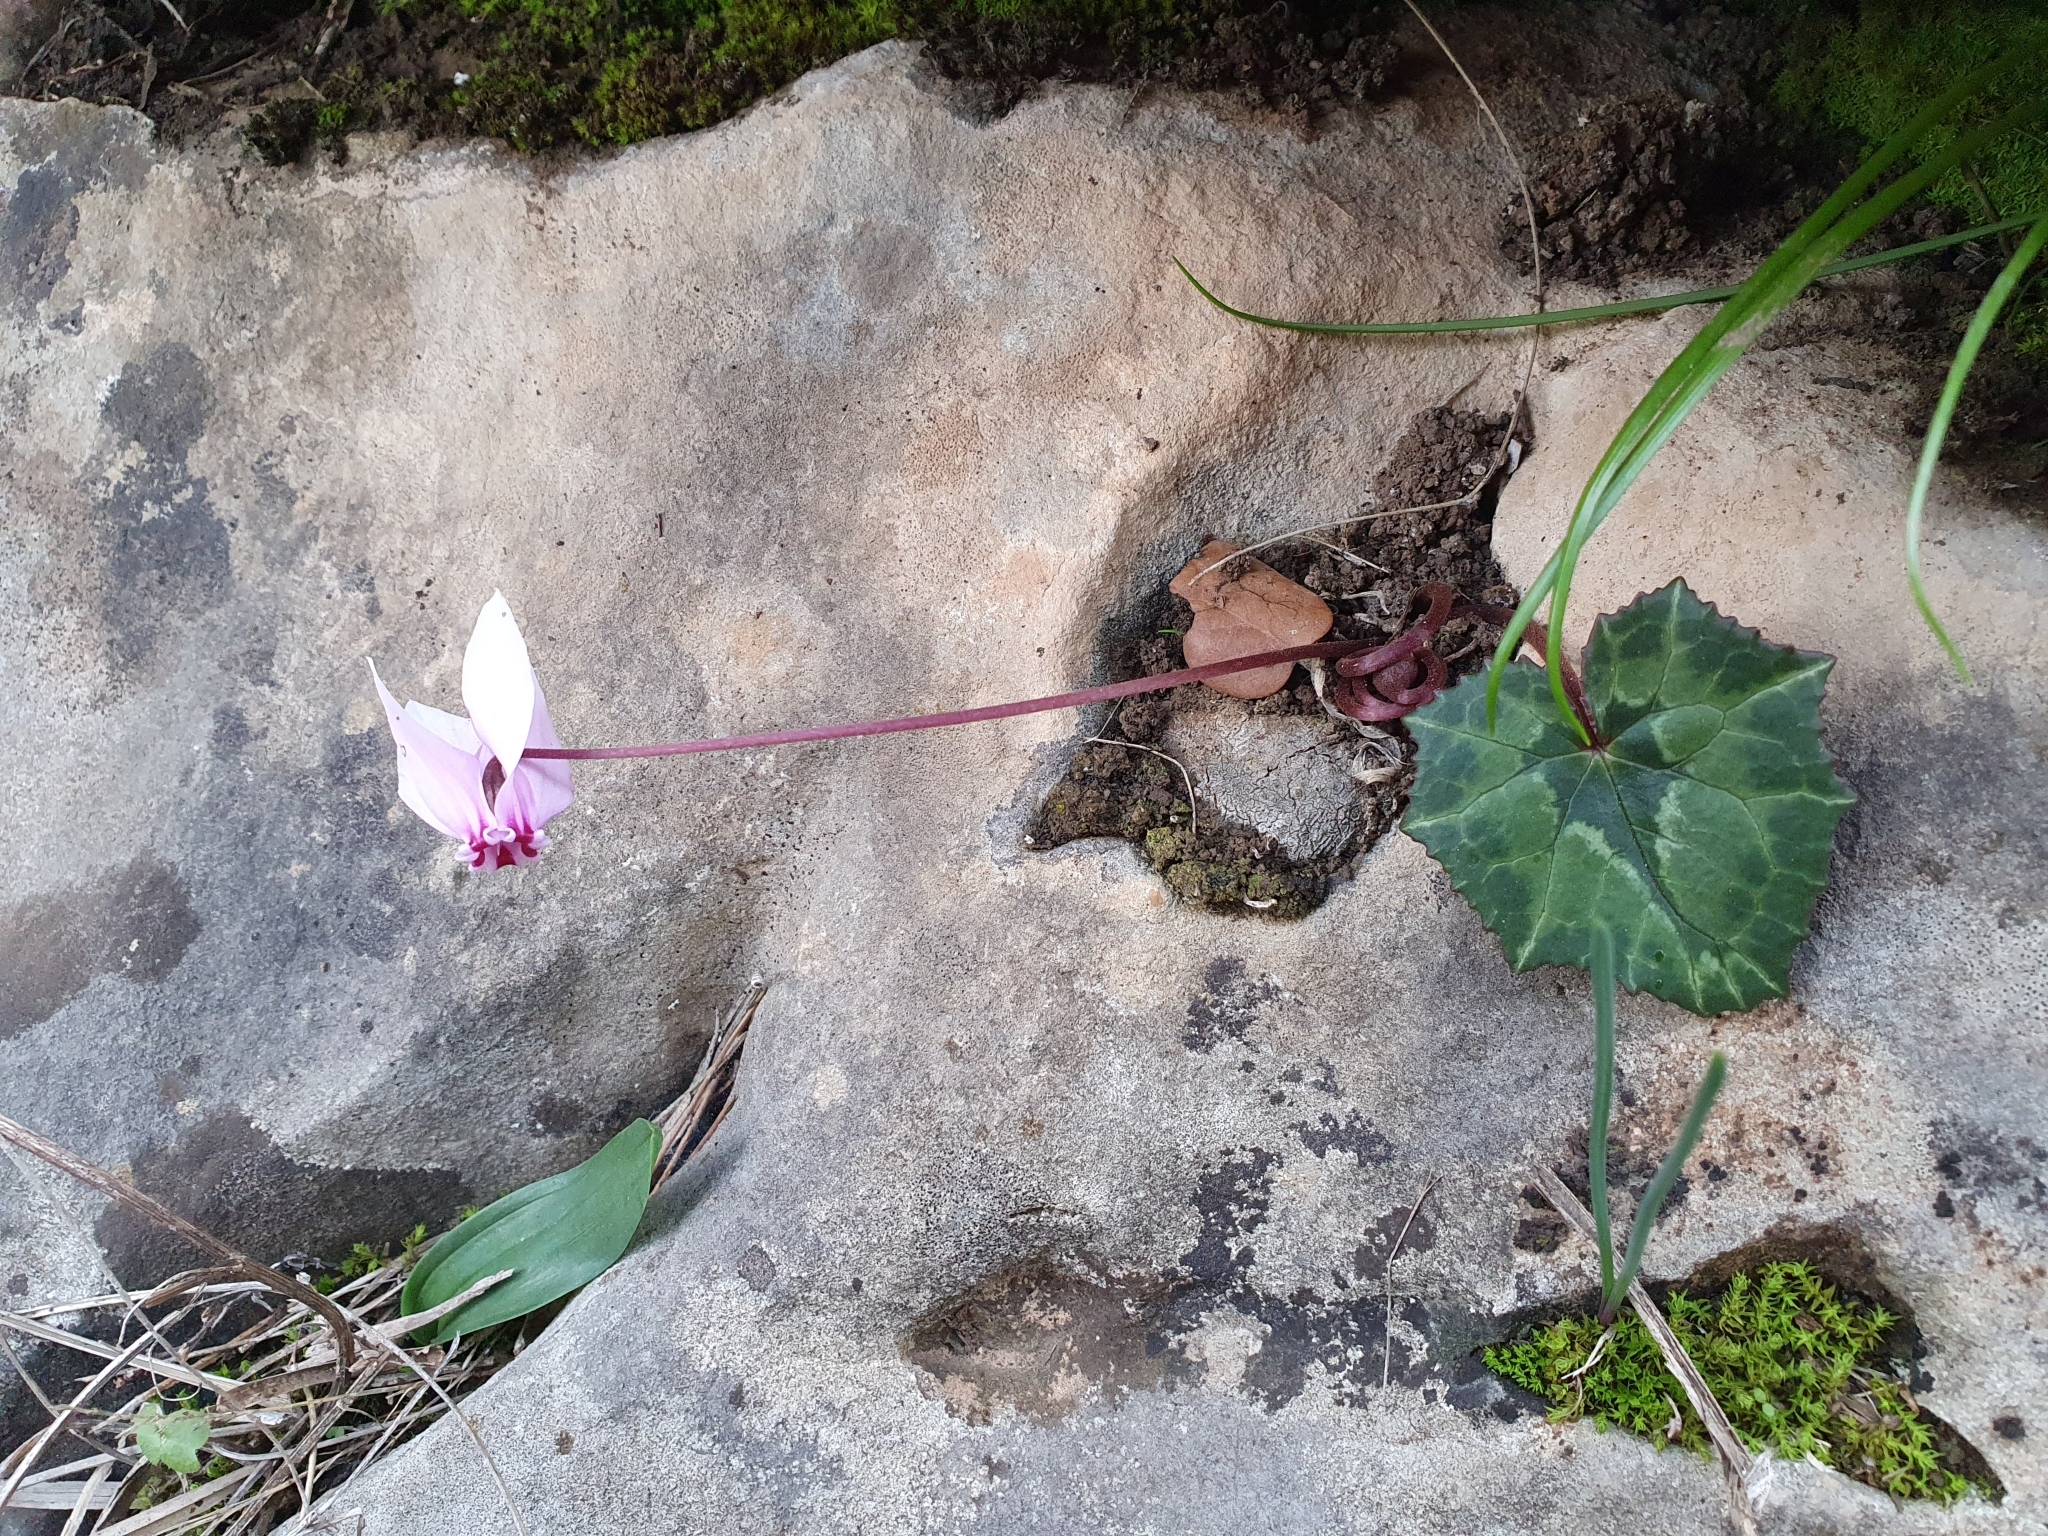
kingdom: Plantae
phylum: Tracheophyta
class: Magnoliopsida
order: Ericales
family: Primulaceae
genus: Cyclamen
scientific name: Cyclamen africanum
